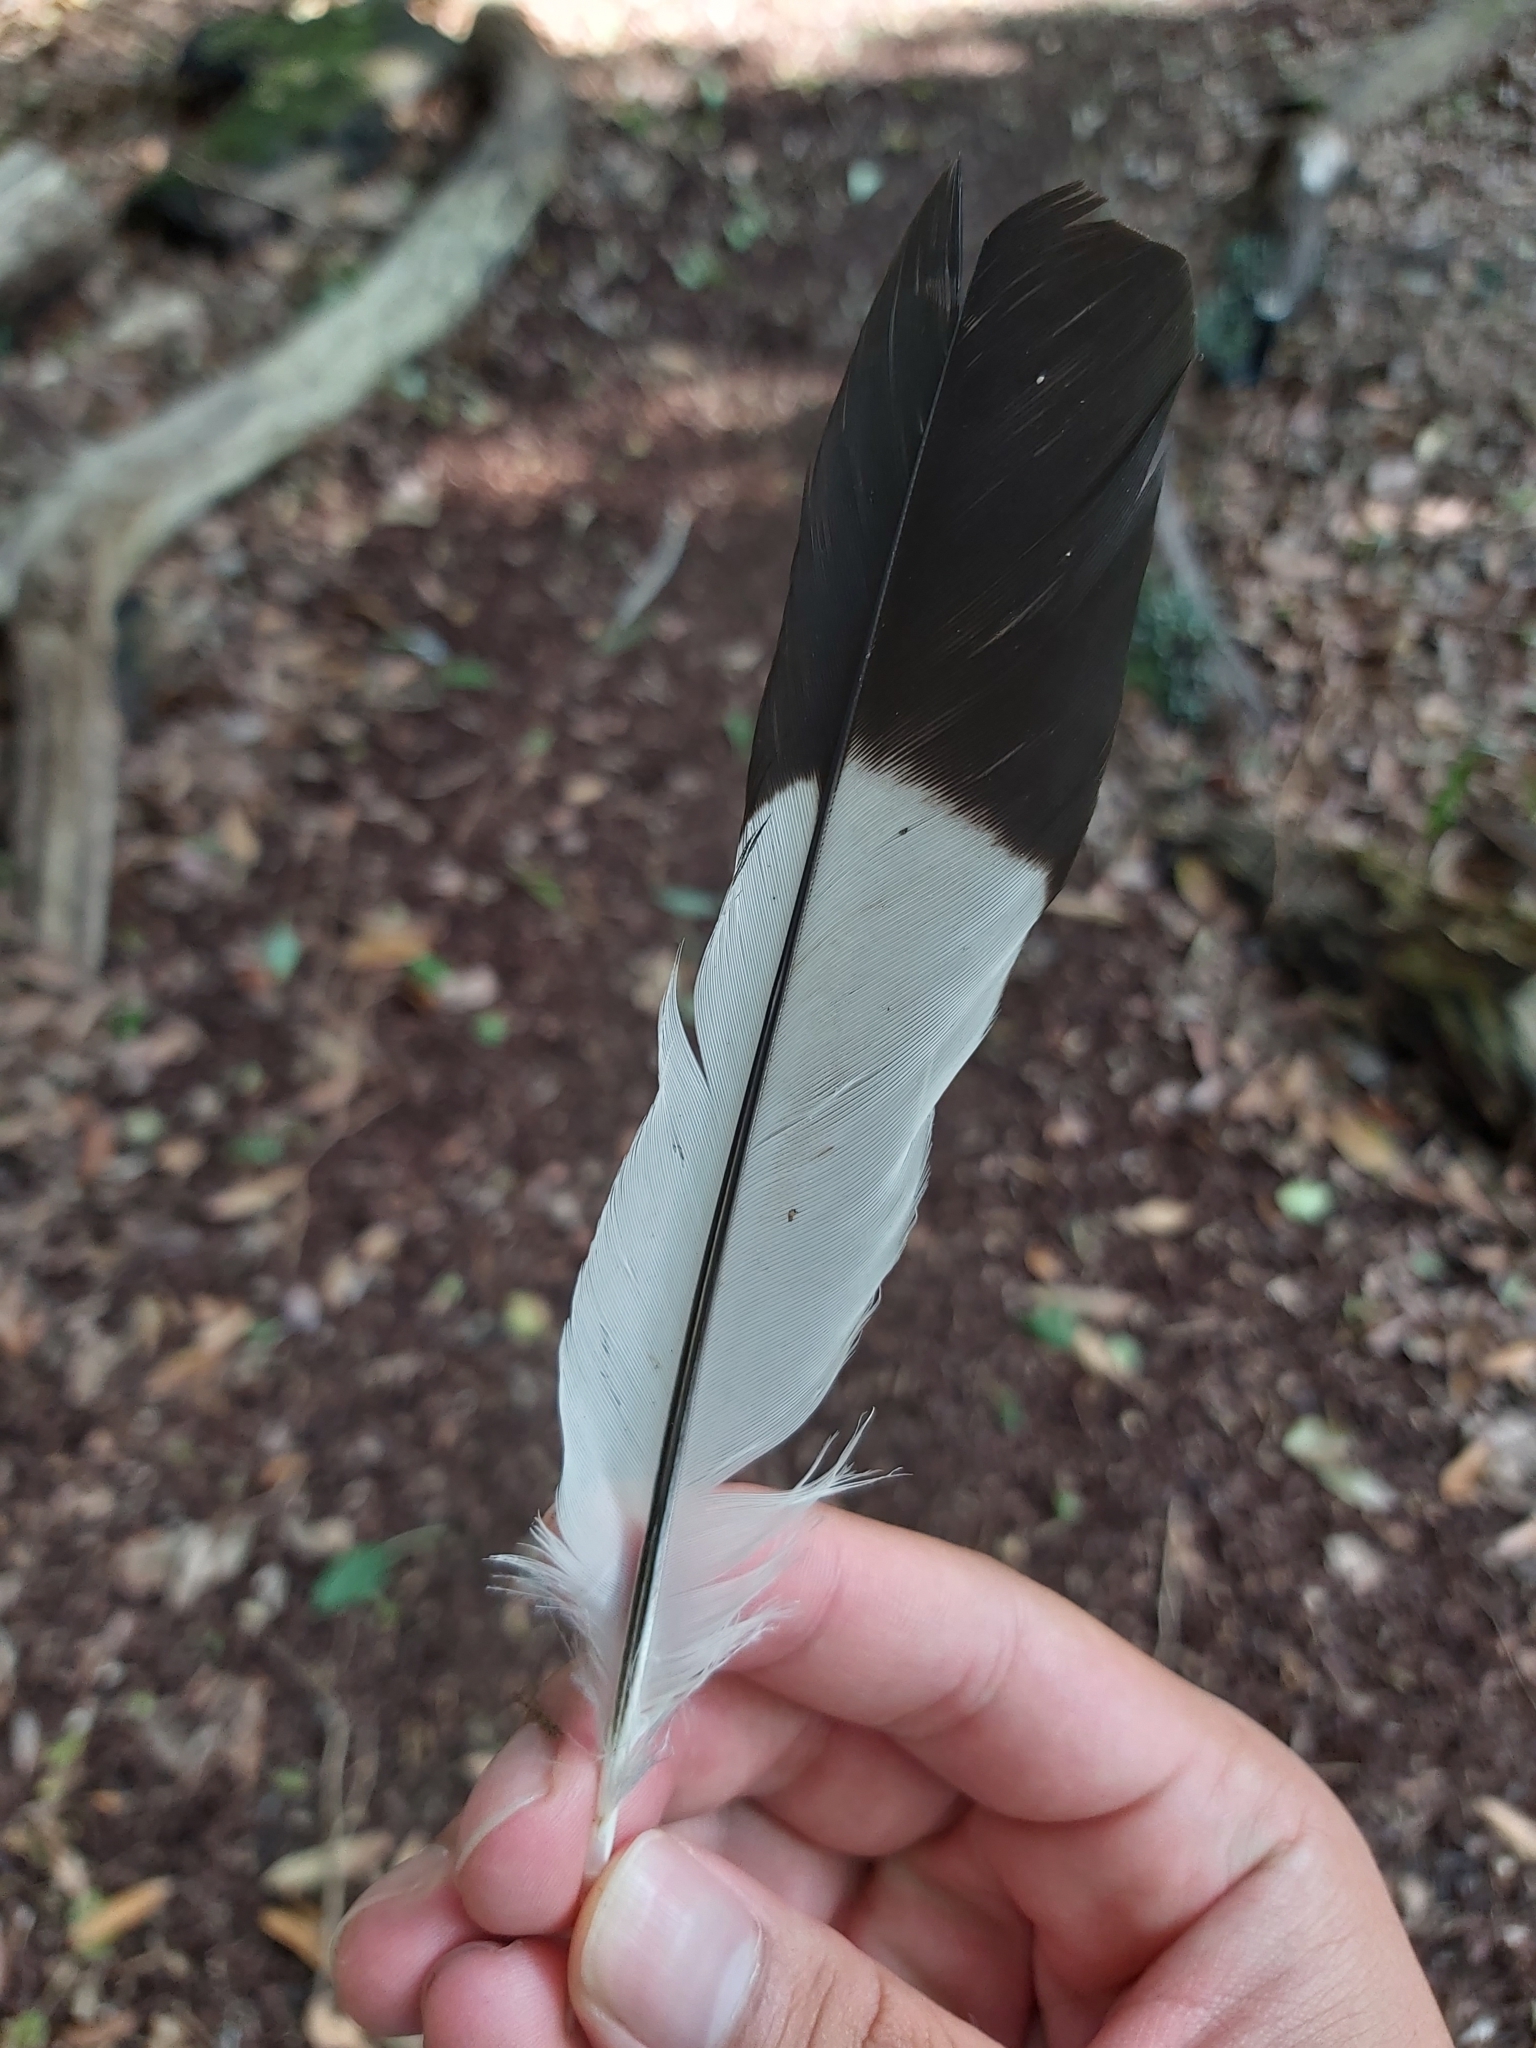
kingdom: Animalia
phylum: Chordata
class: Aves
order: Passeriformes
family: Cracticidae
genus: Gymnorhina
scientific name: Gymnorhina tibicen
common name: Australian magpie
